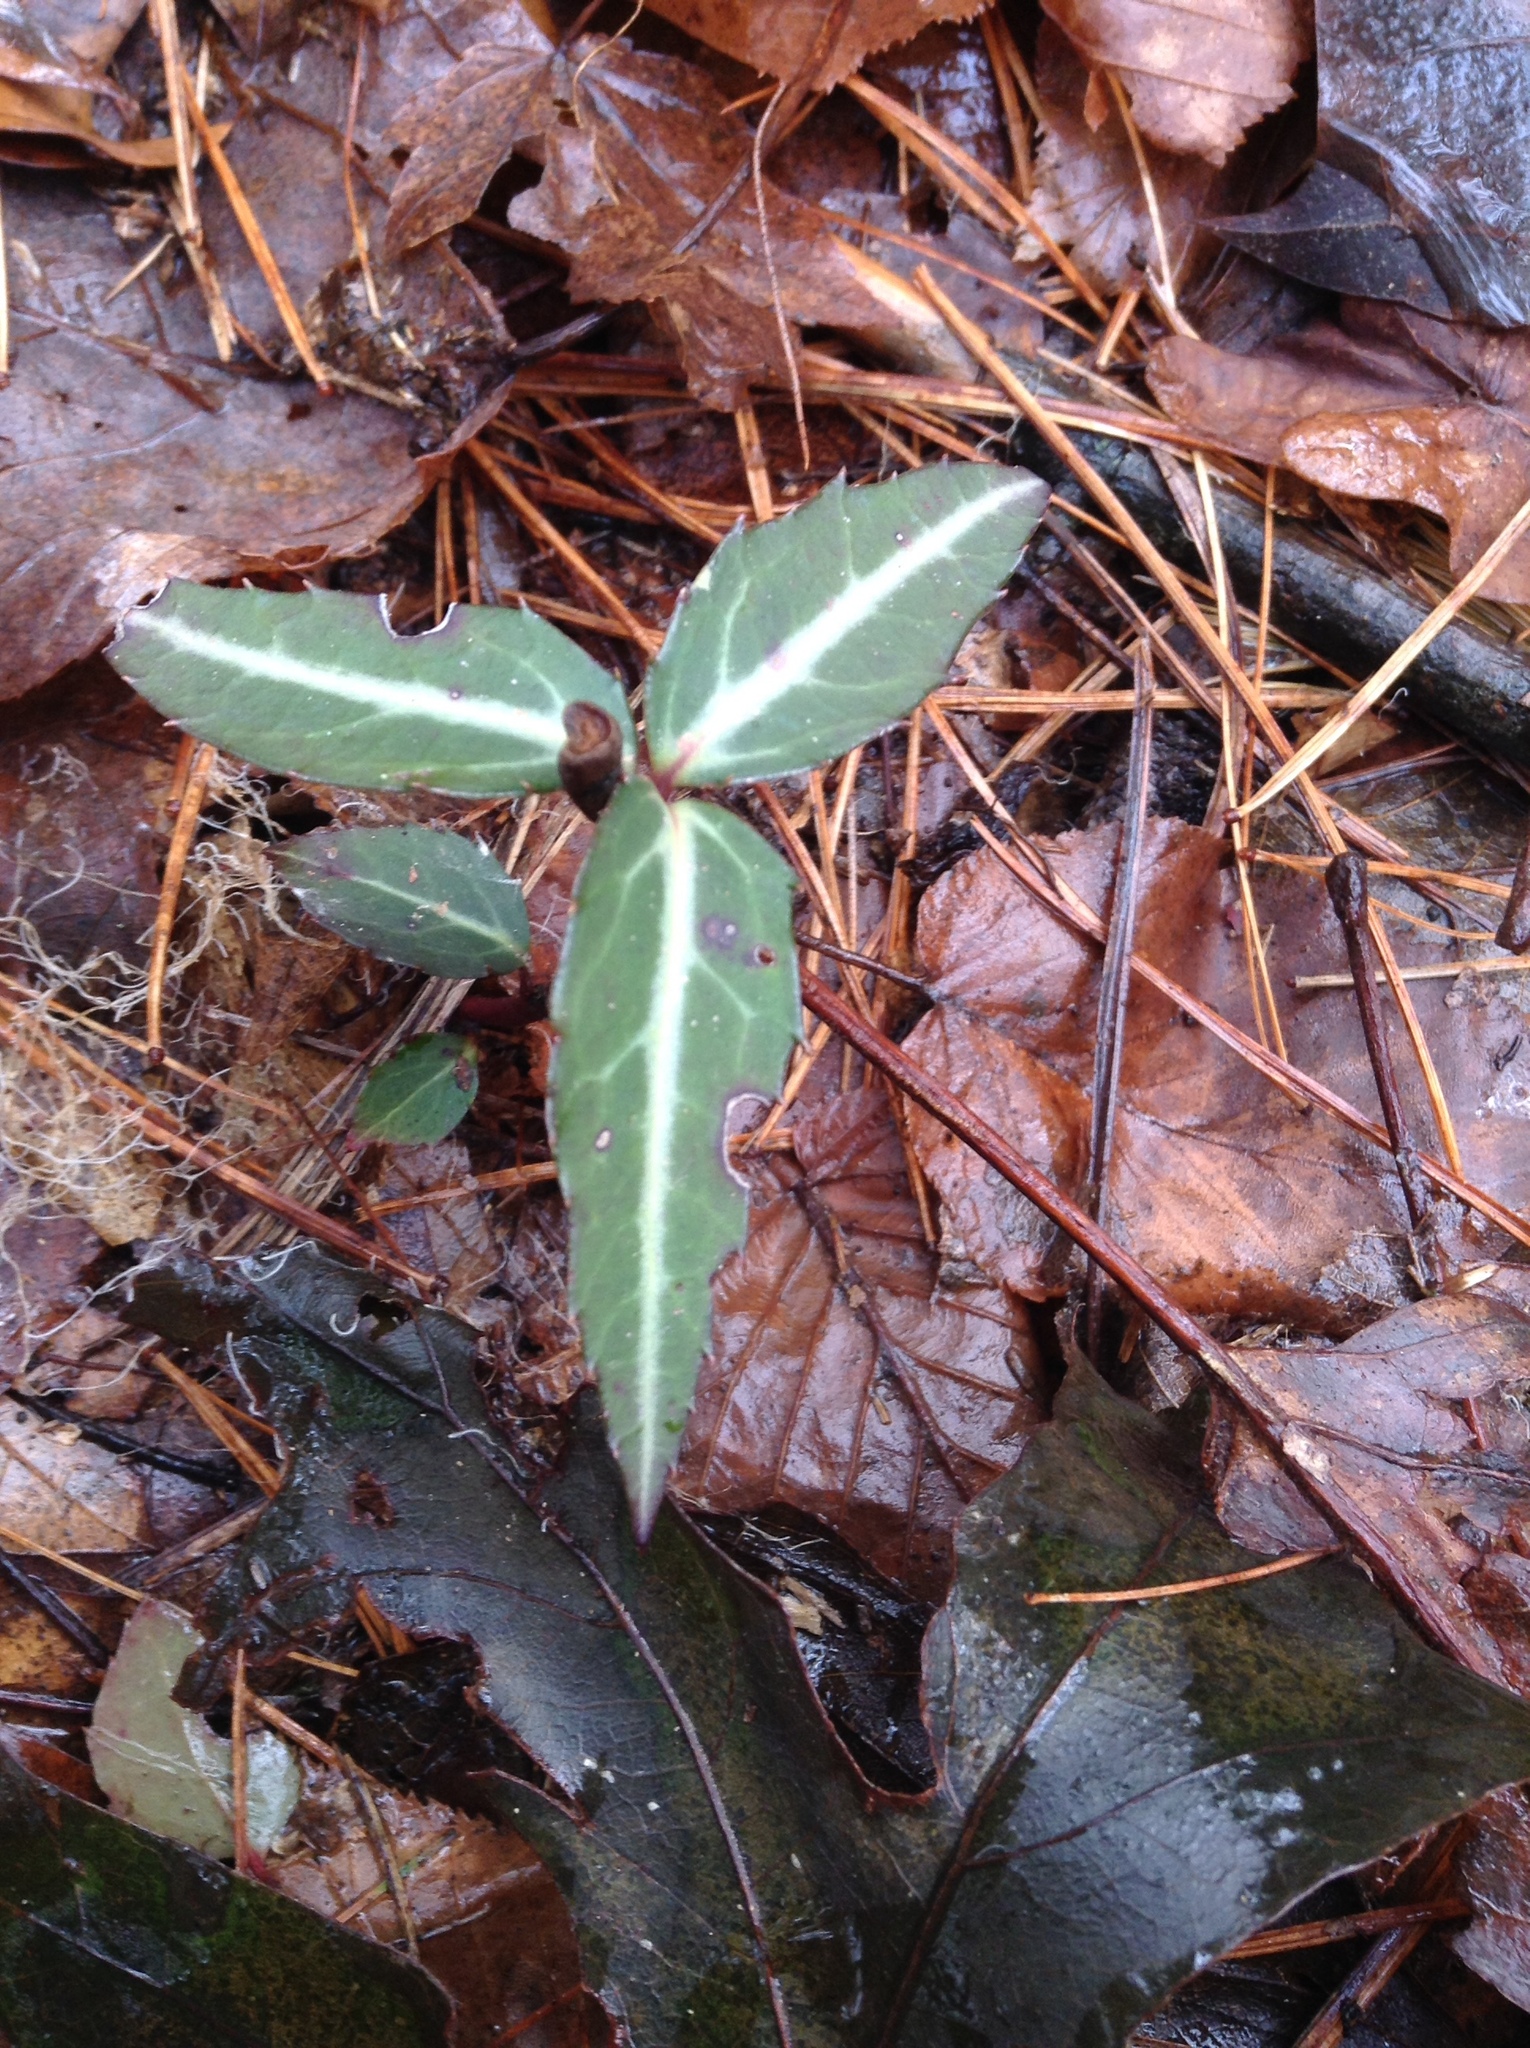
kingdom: Plantae
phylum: Tracheophyta
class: Magnoliopsida
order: Ericales
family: Ericaceae
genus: Chimaphila
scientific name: Chimaphila maculata
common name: Spotted pipsissewa
